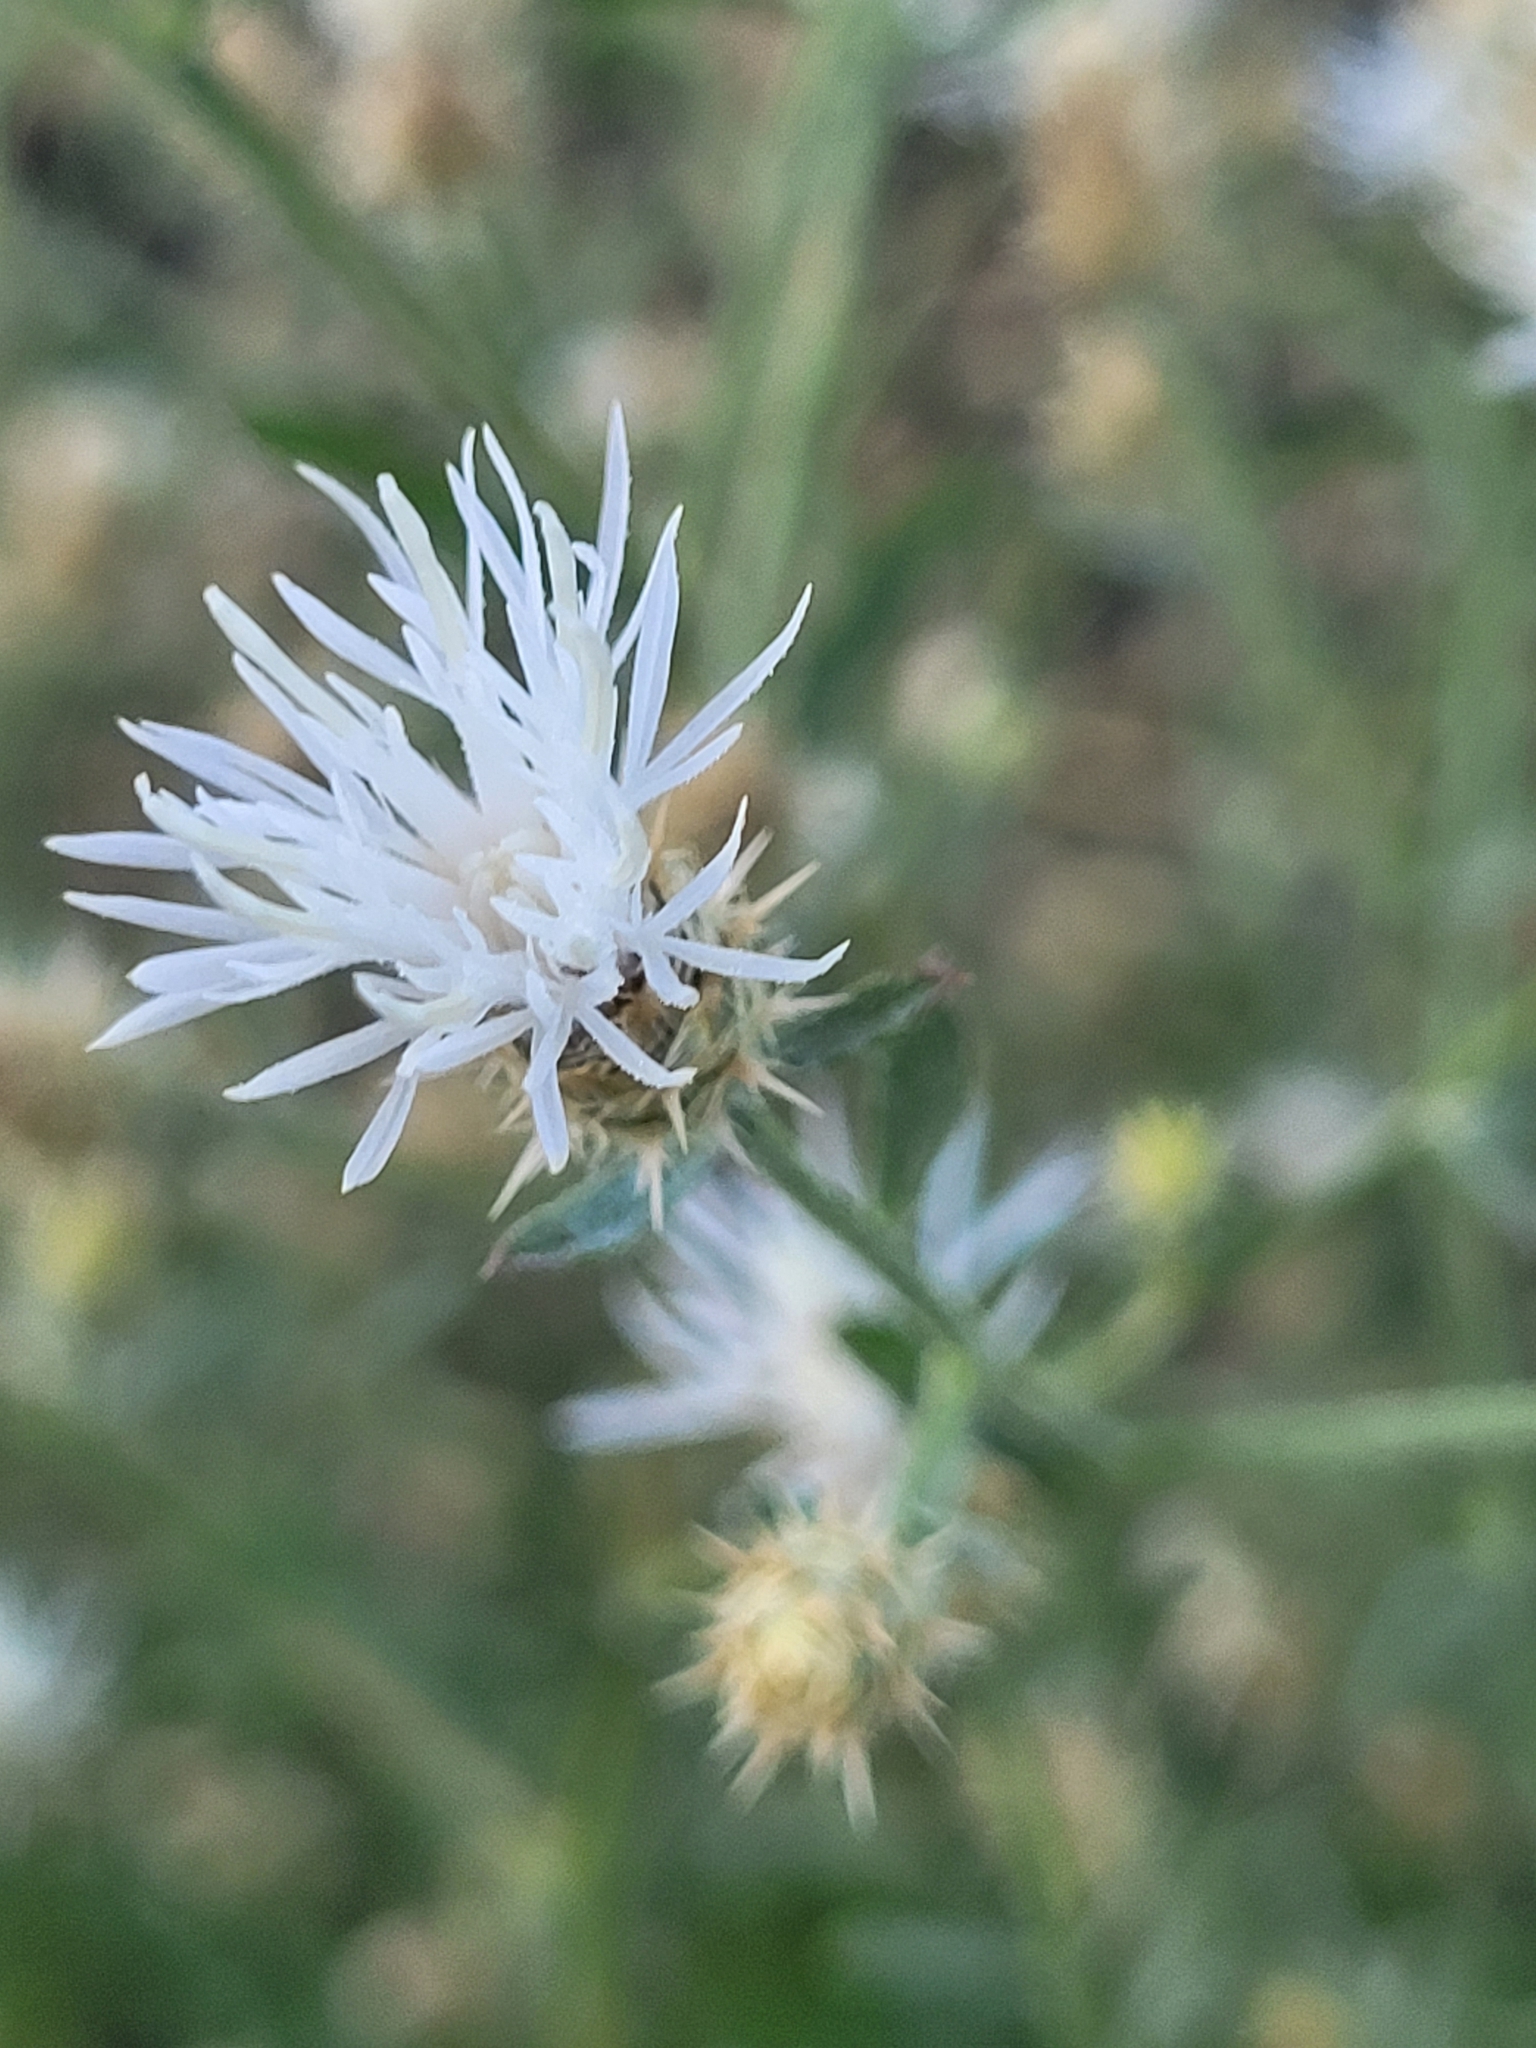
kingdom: Plantae
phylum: Tracheophyta
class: Magnoliopsida
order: Asterales
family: Asteraceae
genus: Centaurea
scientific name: Centaurea diffusa
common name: Diffuse knapweed
